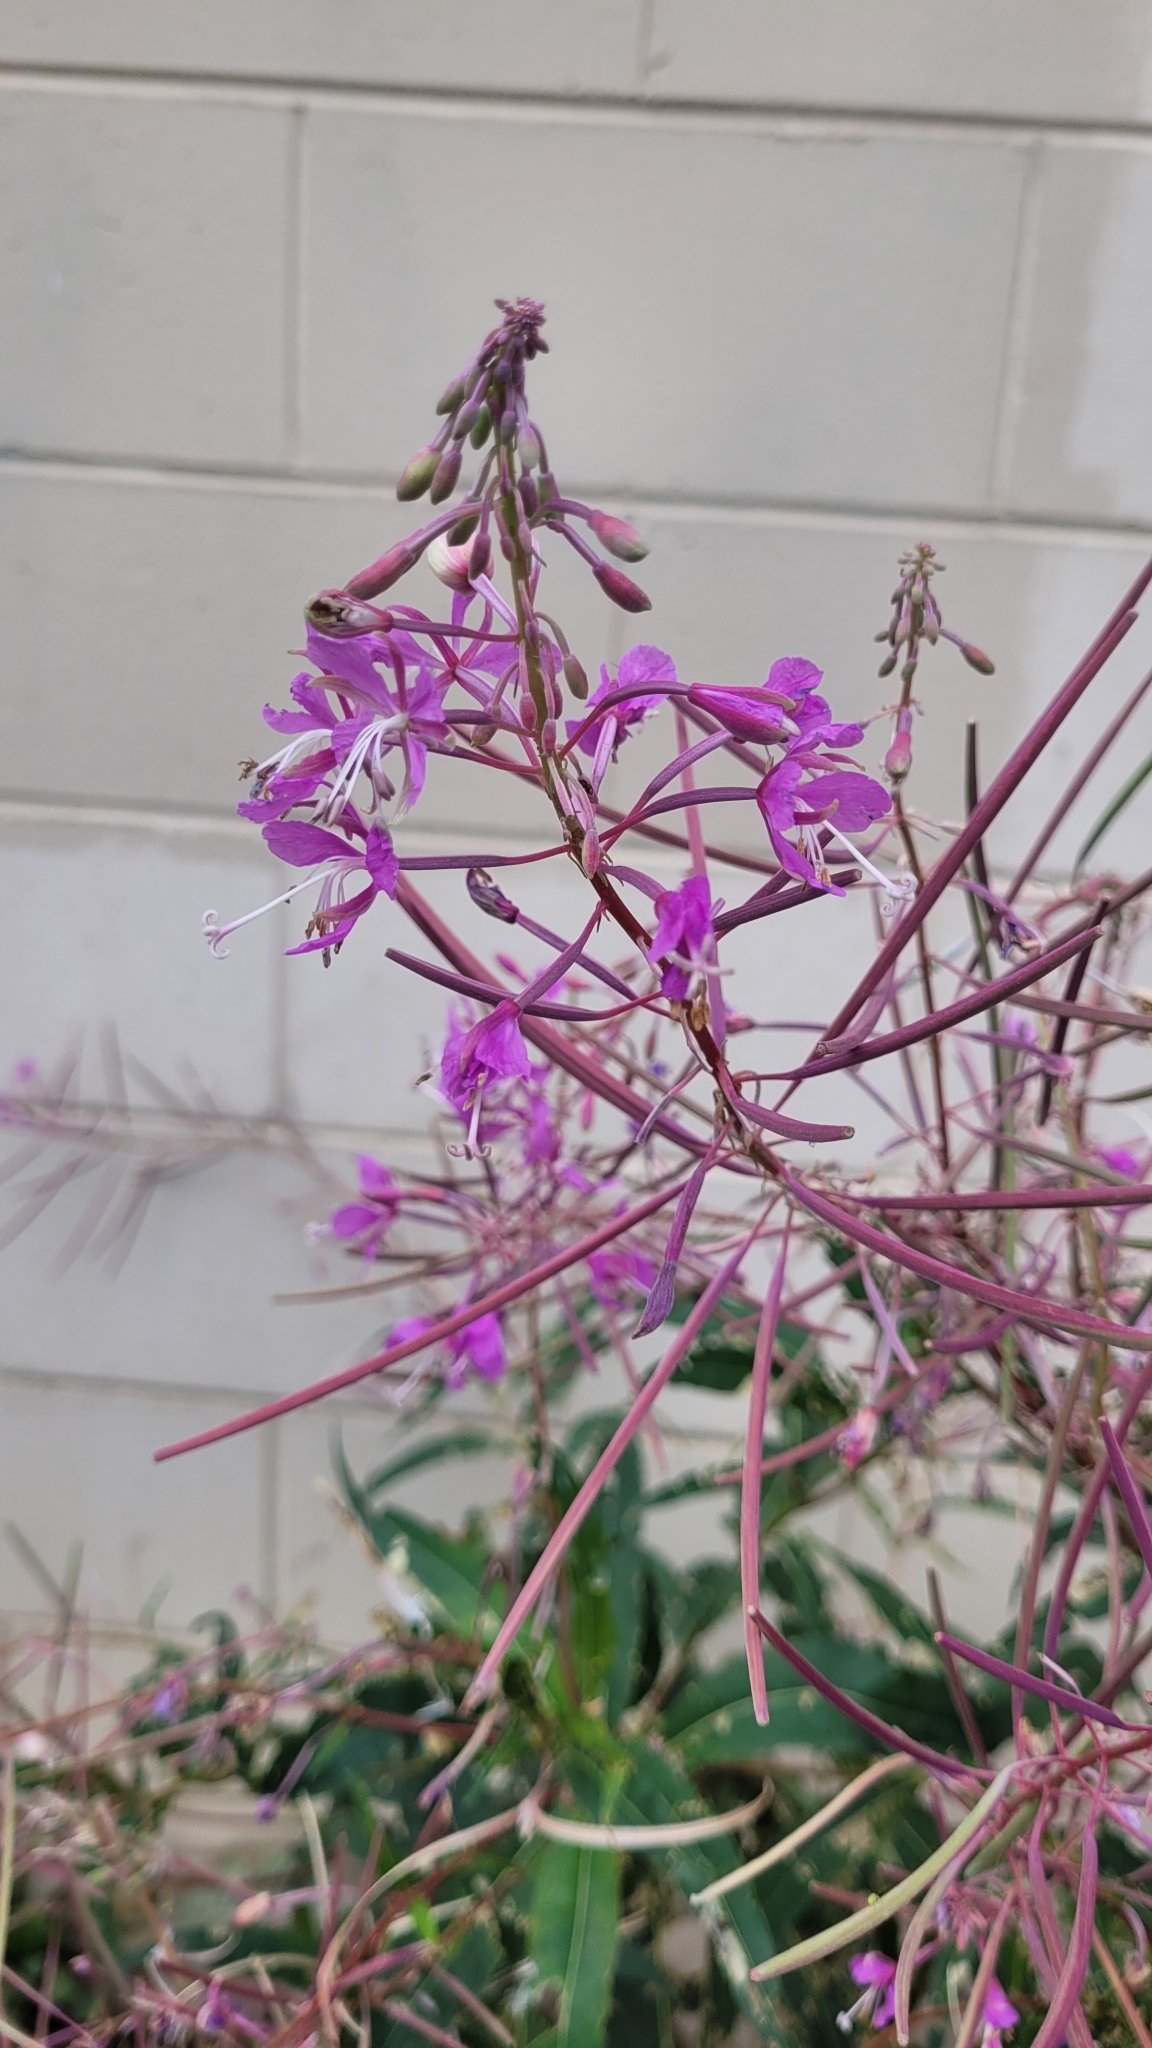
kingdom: Plantae
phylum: Tracheophyta
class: Magnoliopsida
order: Myrtales
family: Onagraceae
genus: Chamaenerion
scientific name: Chamaenerion angustifolium
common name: Fireweed
